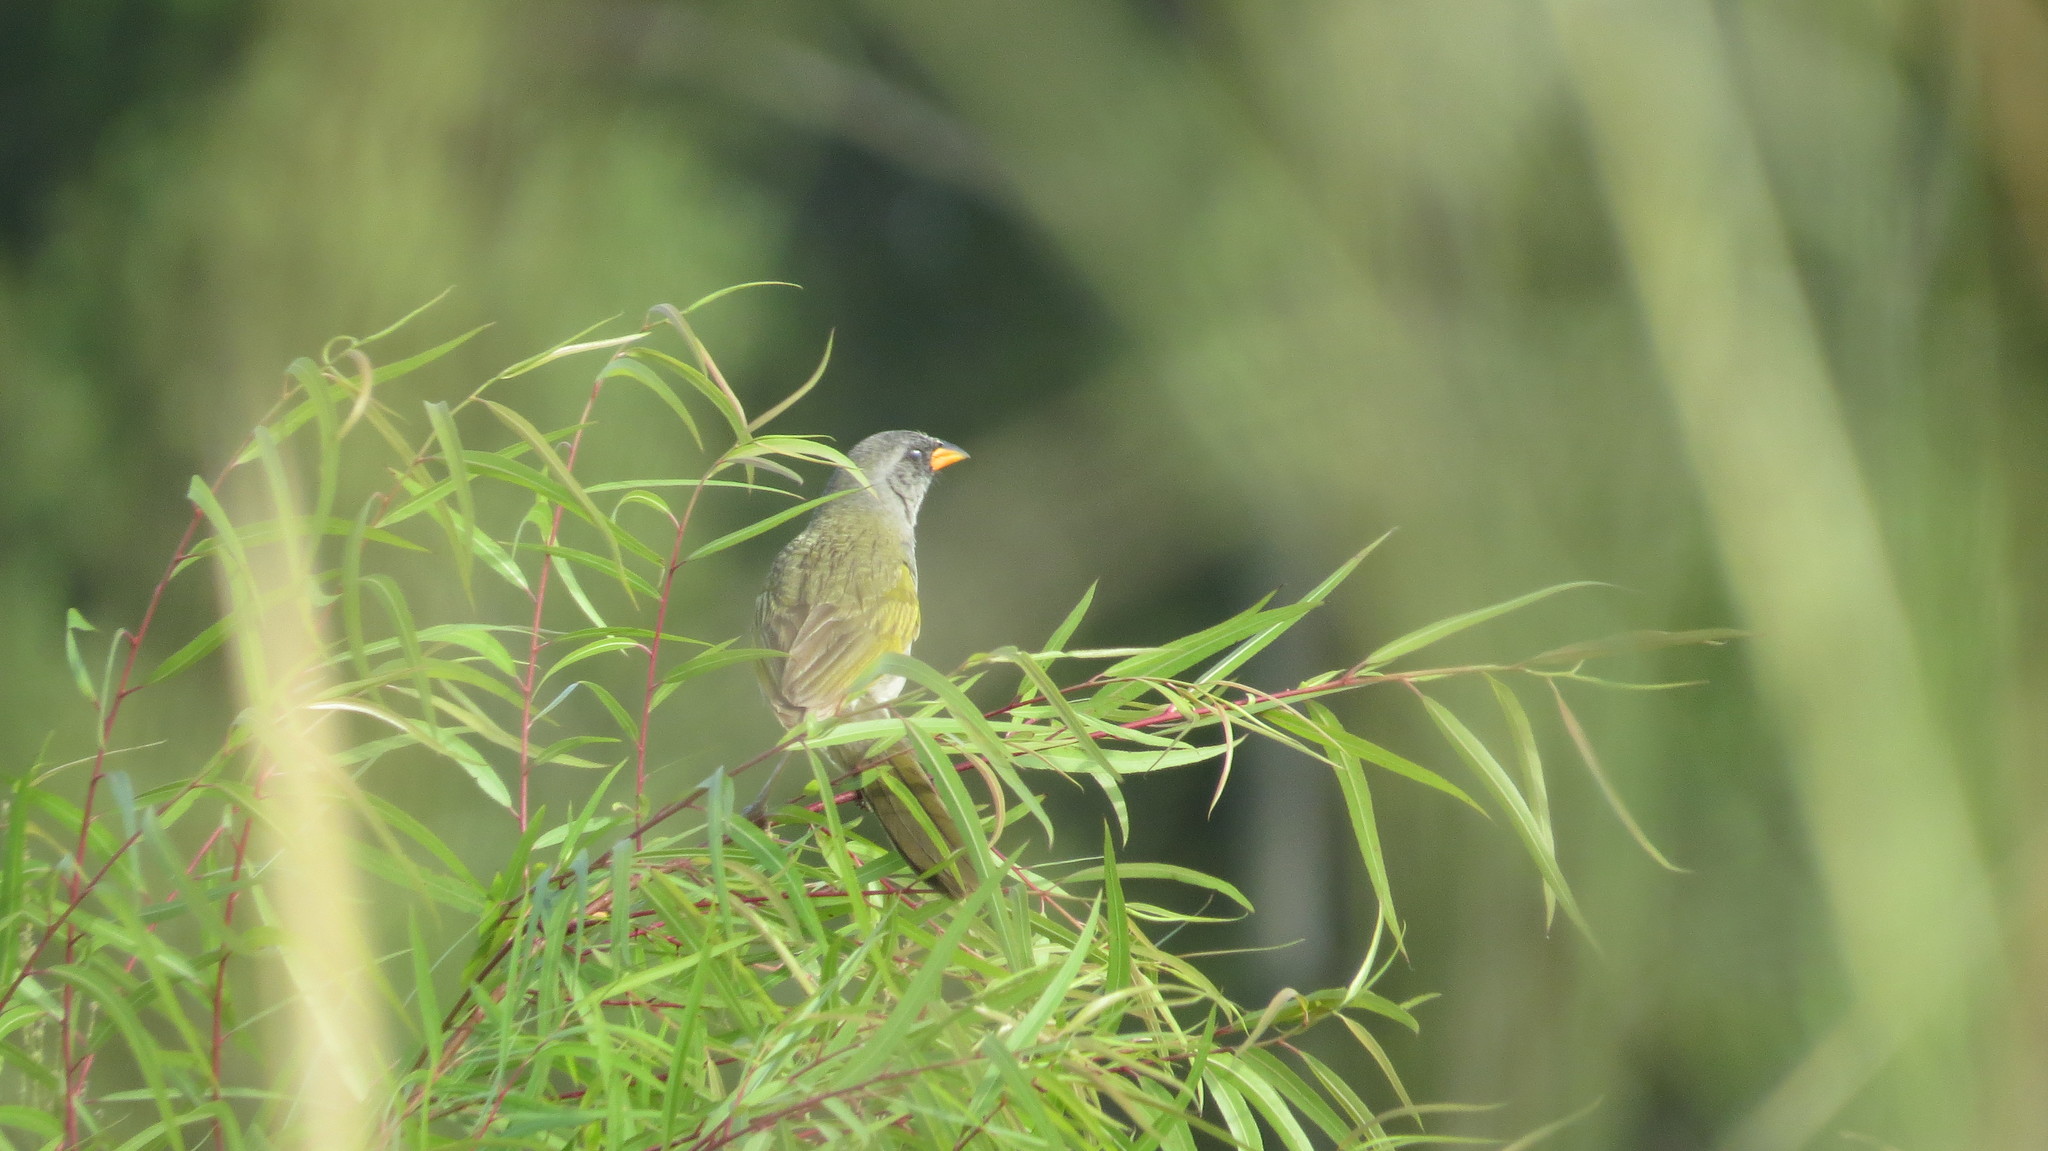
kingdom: Animalia
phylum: Chordata
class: Aves
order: Passeriformes
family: Thraupidae
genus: Embernagra
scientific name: Embernagra platensis
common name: Pampa finch
